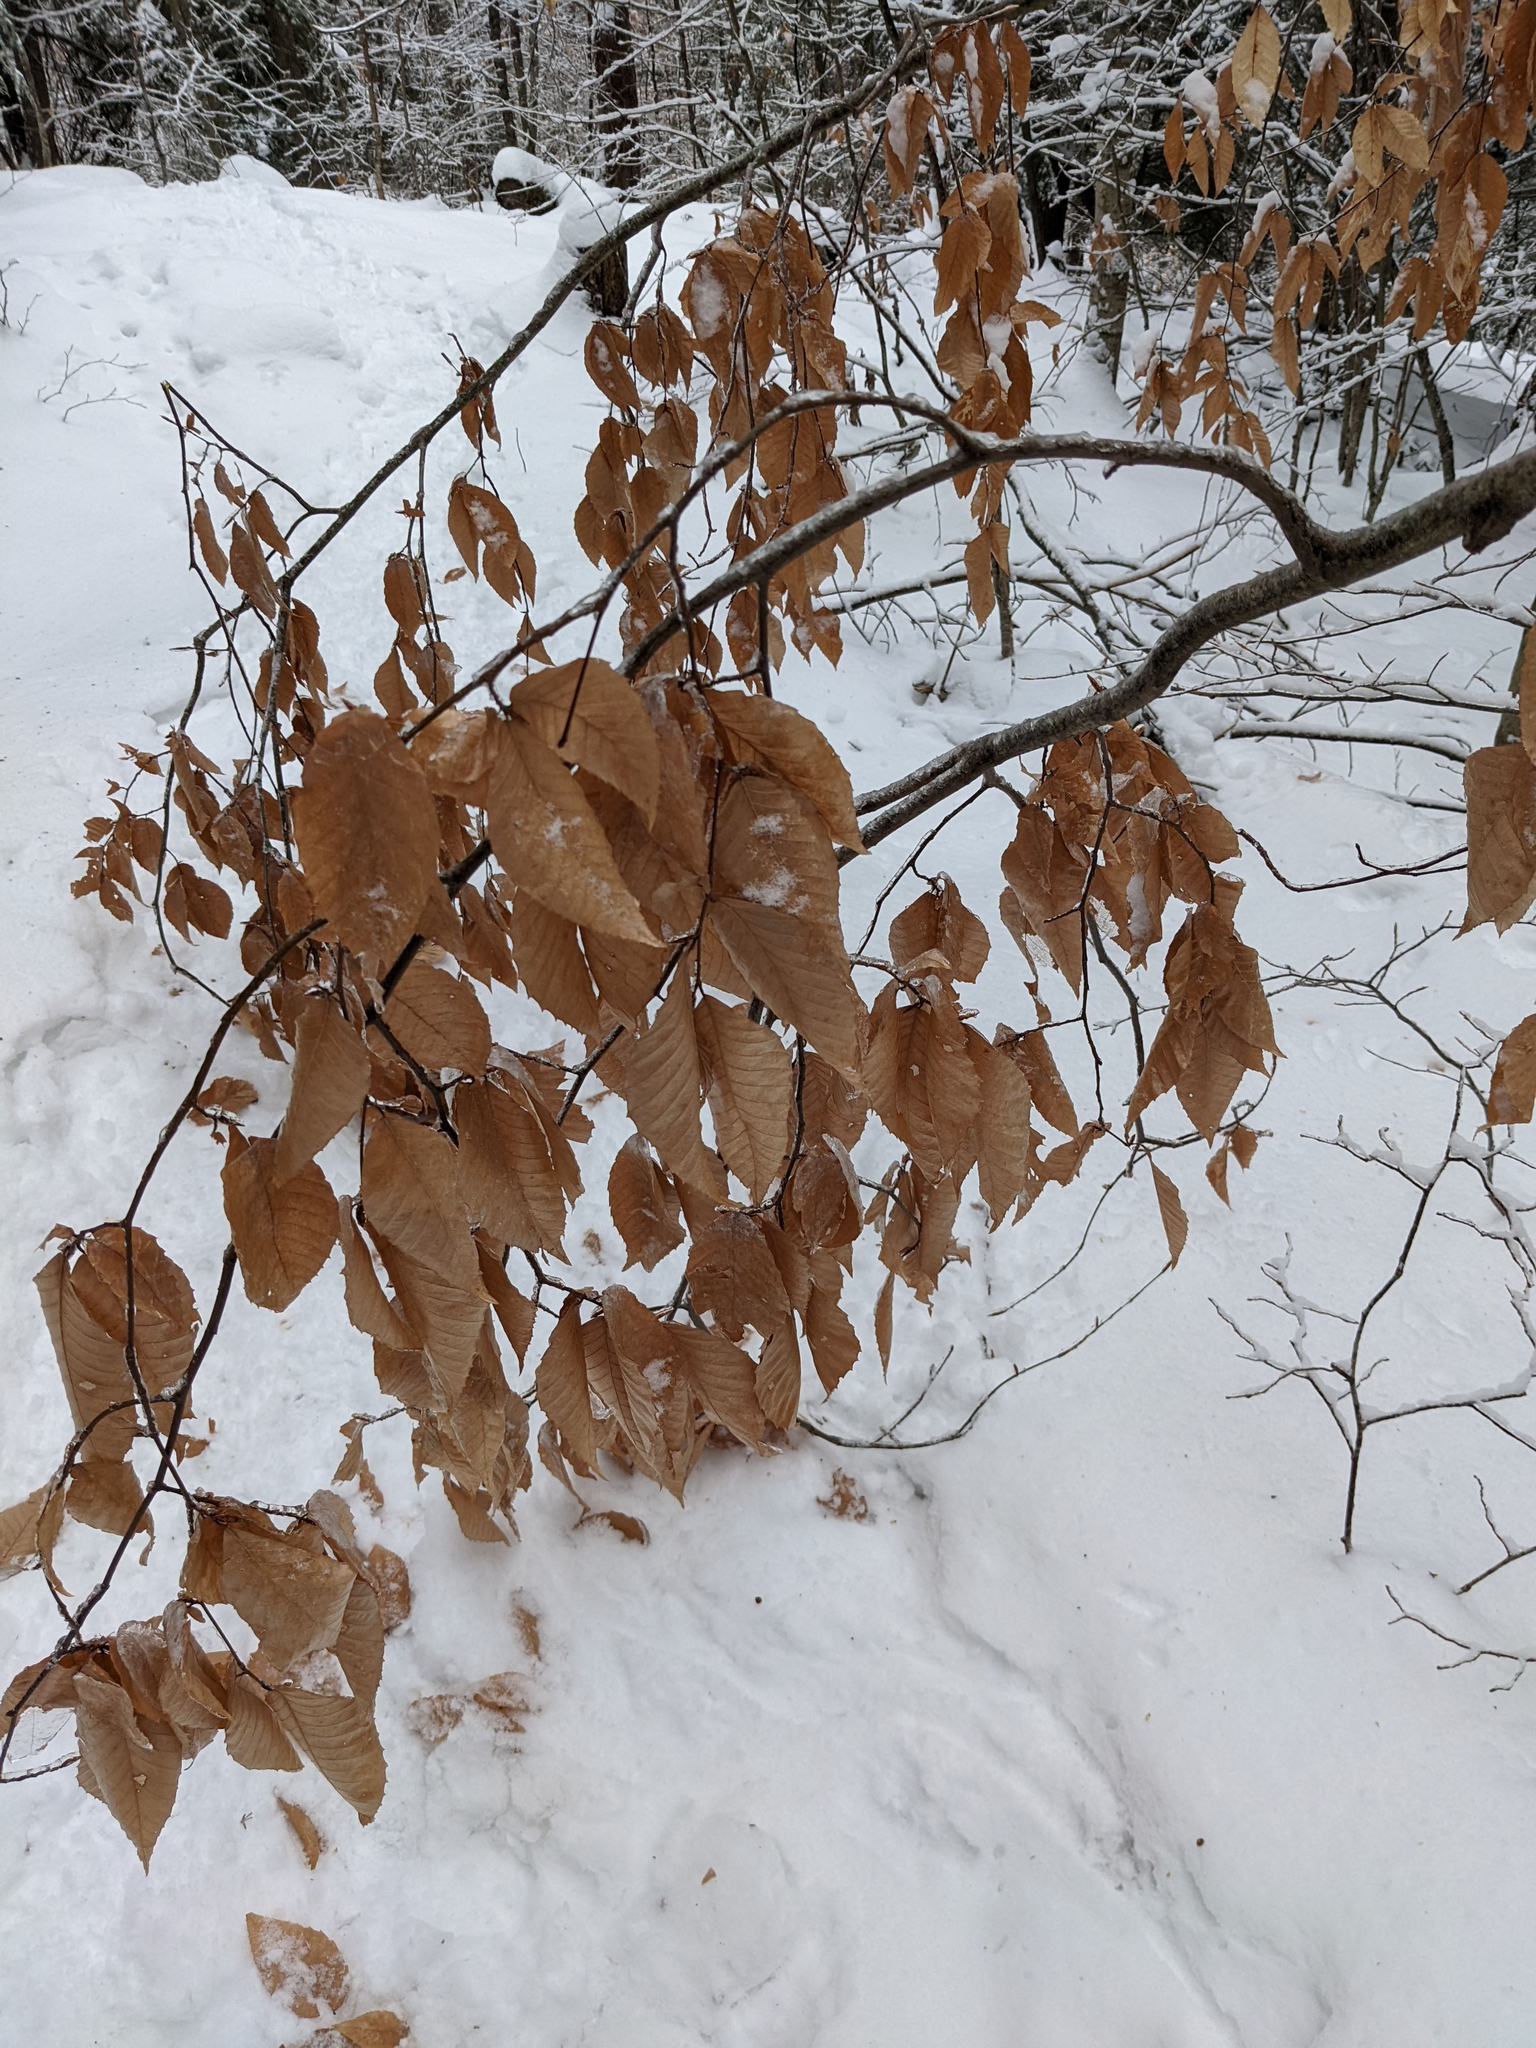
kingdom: Plantae
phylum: Tracheophyta
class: Magnoliopsida
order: Fagales
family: Fagaceae
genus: Fagus
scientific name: Fagus grandifolia
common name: American beech
